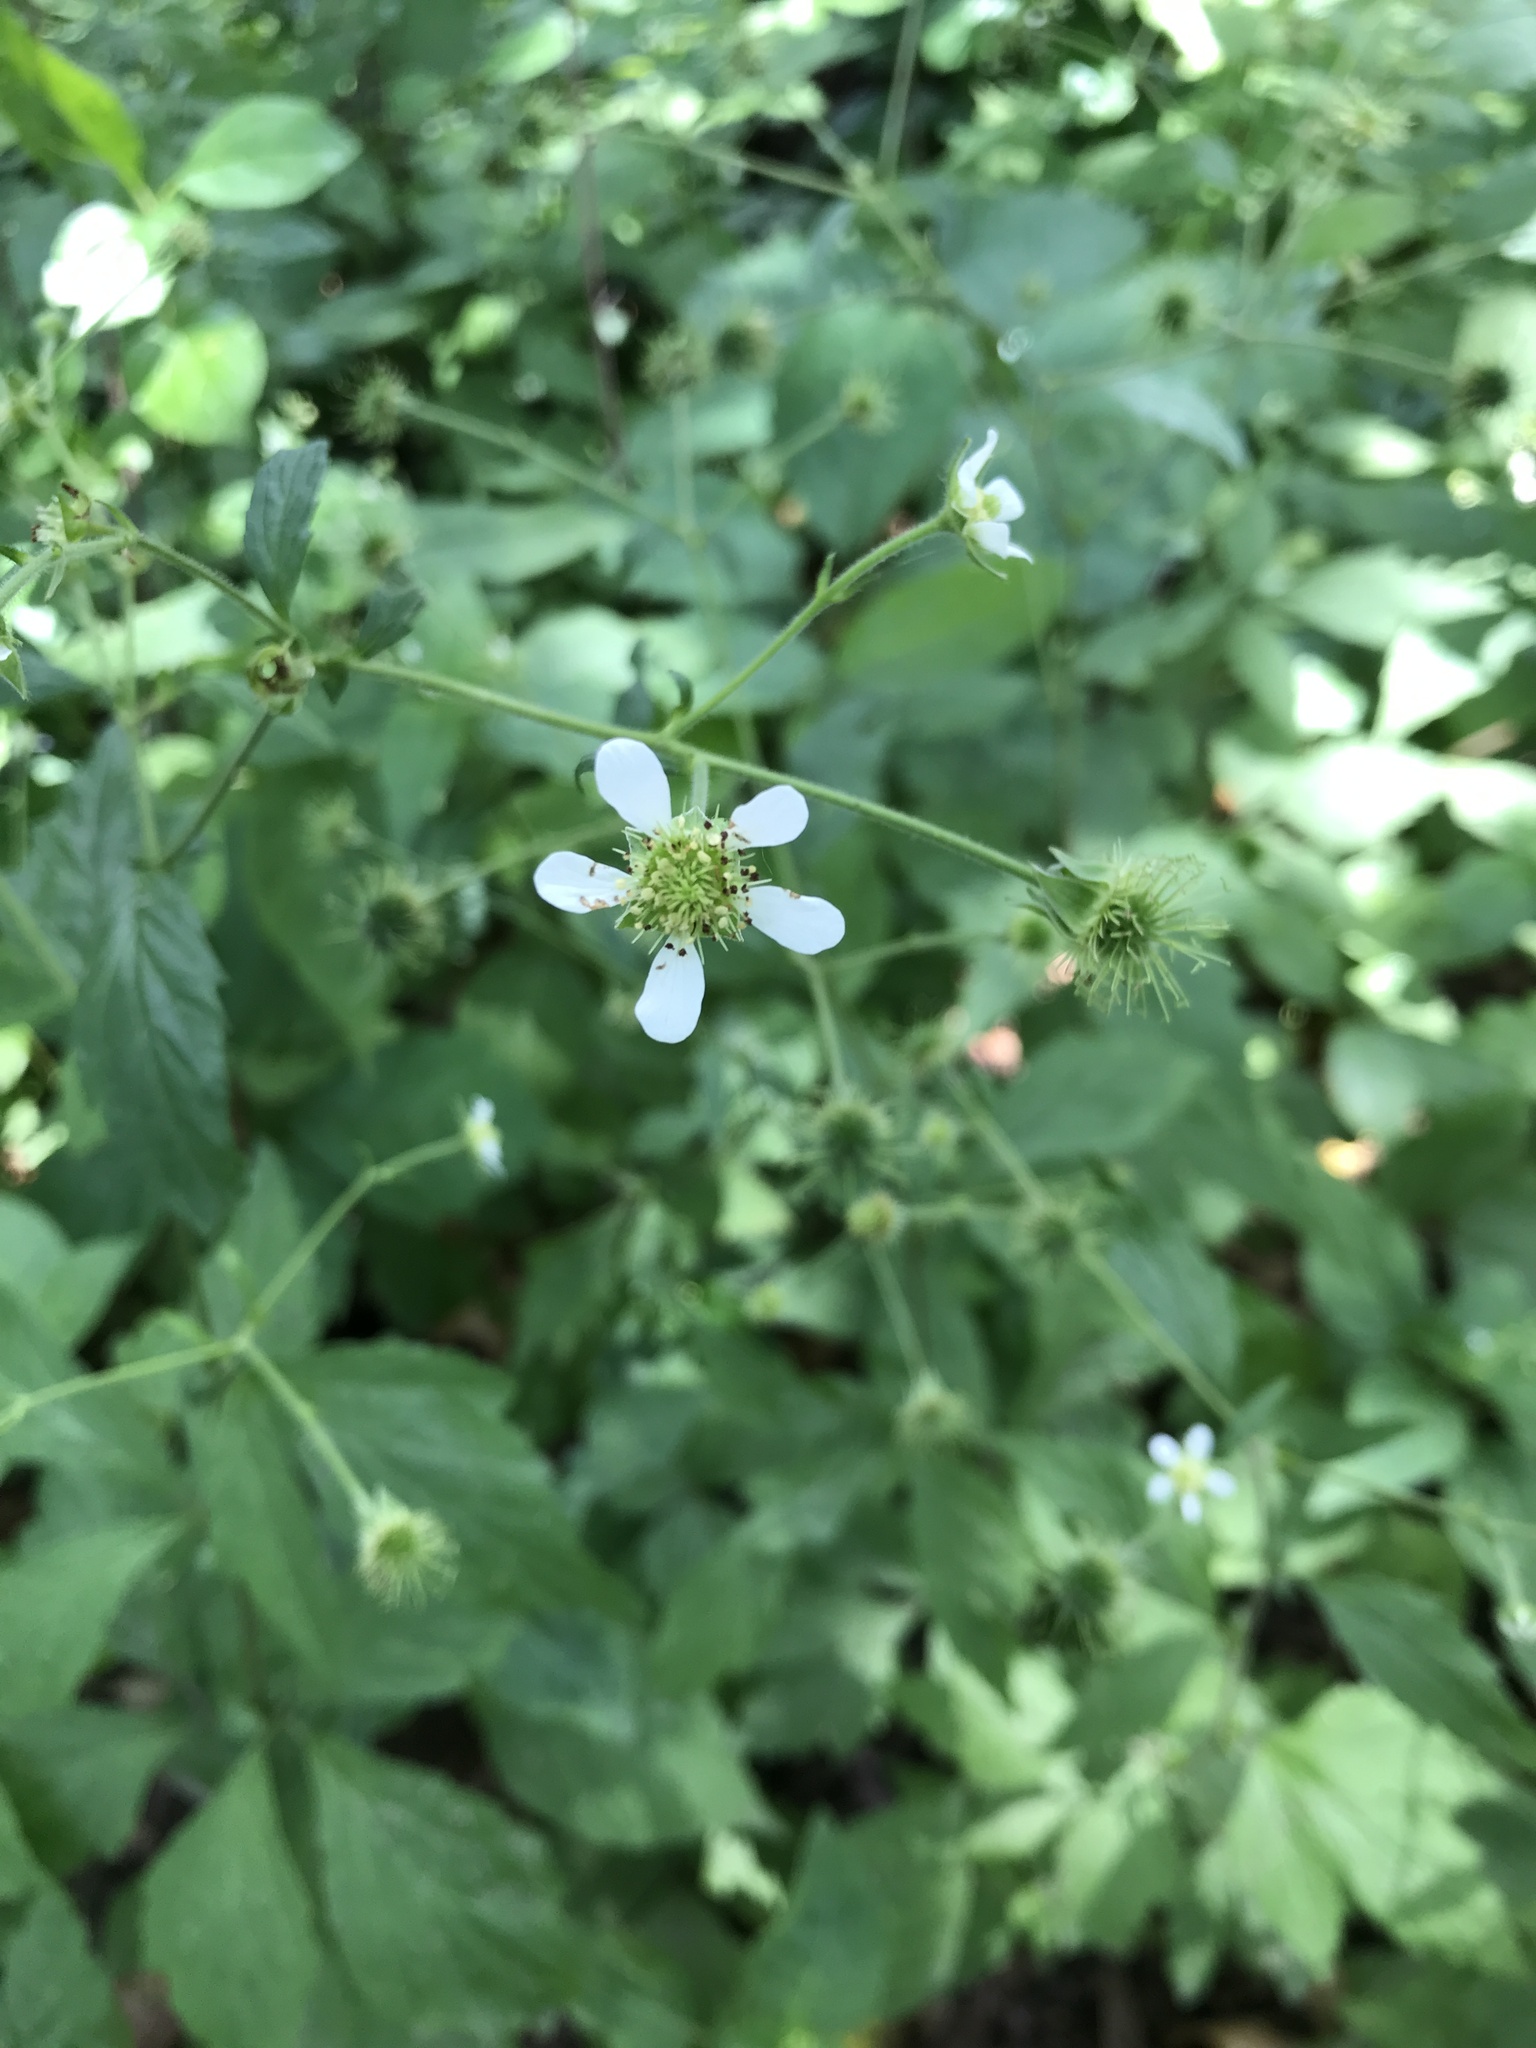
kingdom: Plantae
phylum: Tracheophyta
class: Magnoliopsida
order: Rosales
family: Rosaceae
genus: Geum
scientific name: Geum canadense
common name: White avens
